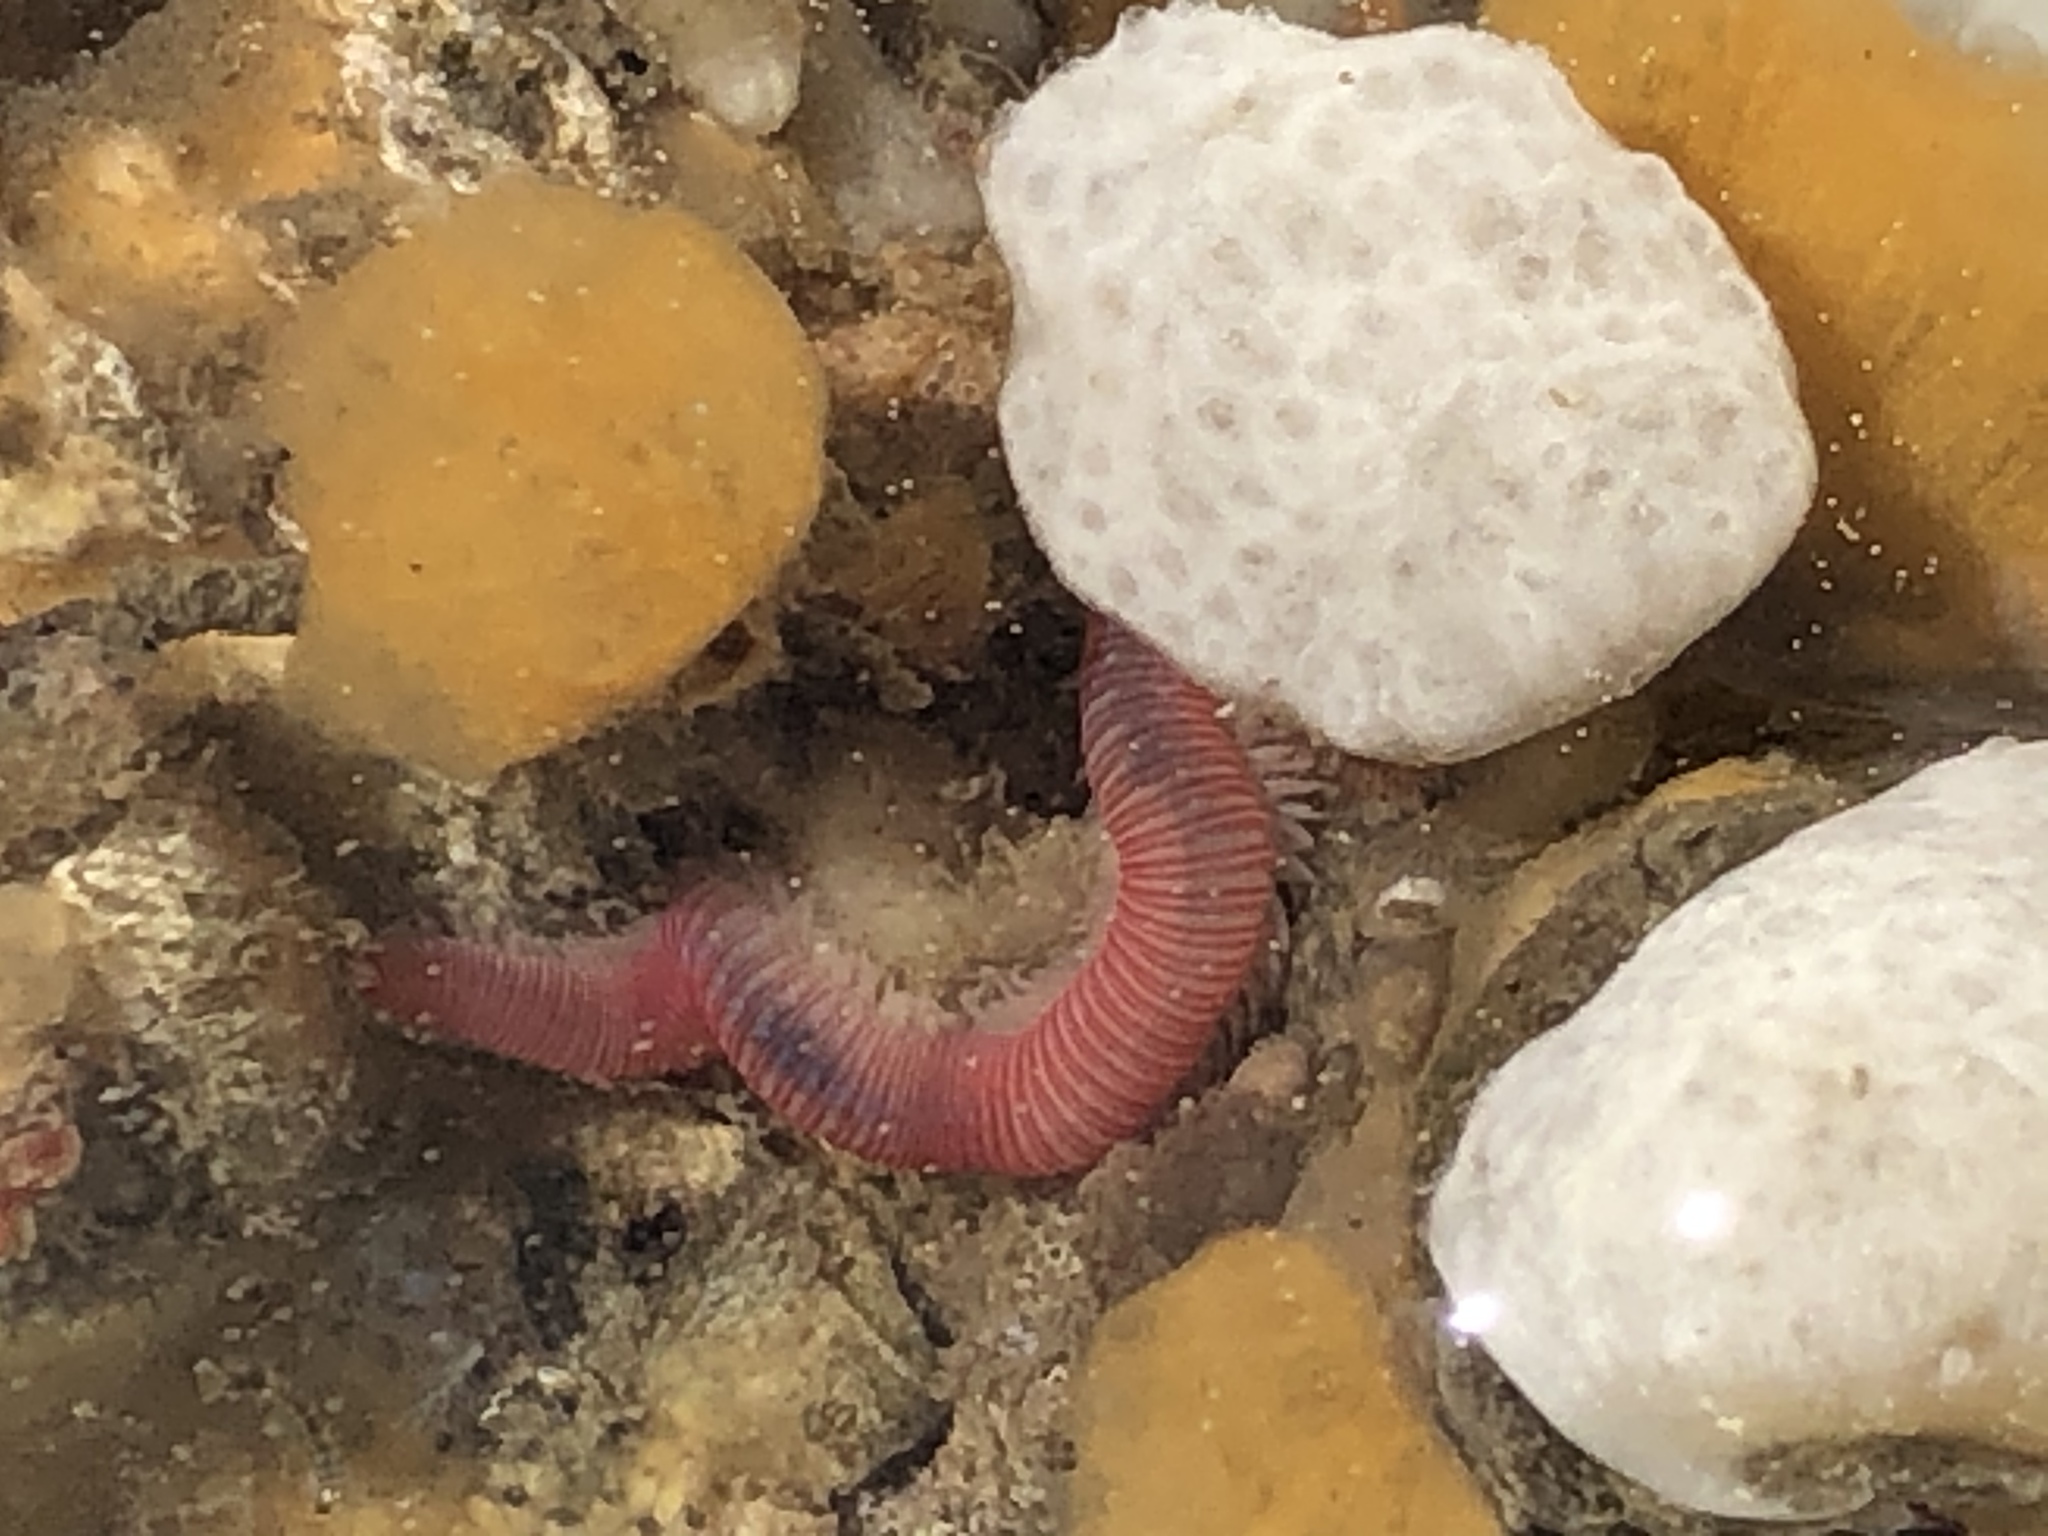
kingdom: Animalia
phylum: Annelida
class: Polychaeta
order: Eunicida
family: Dorvilleidae
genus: Dorvillea
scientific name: Dorvillea moniloceras
